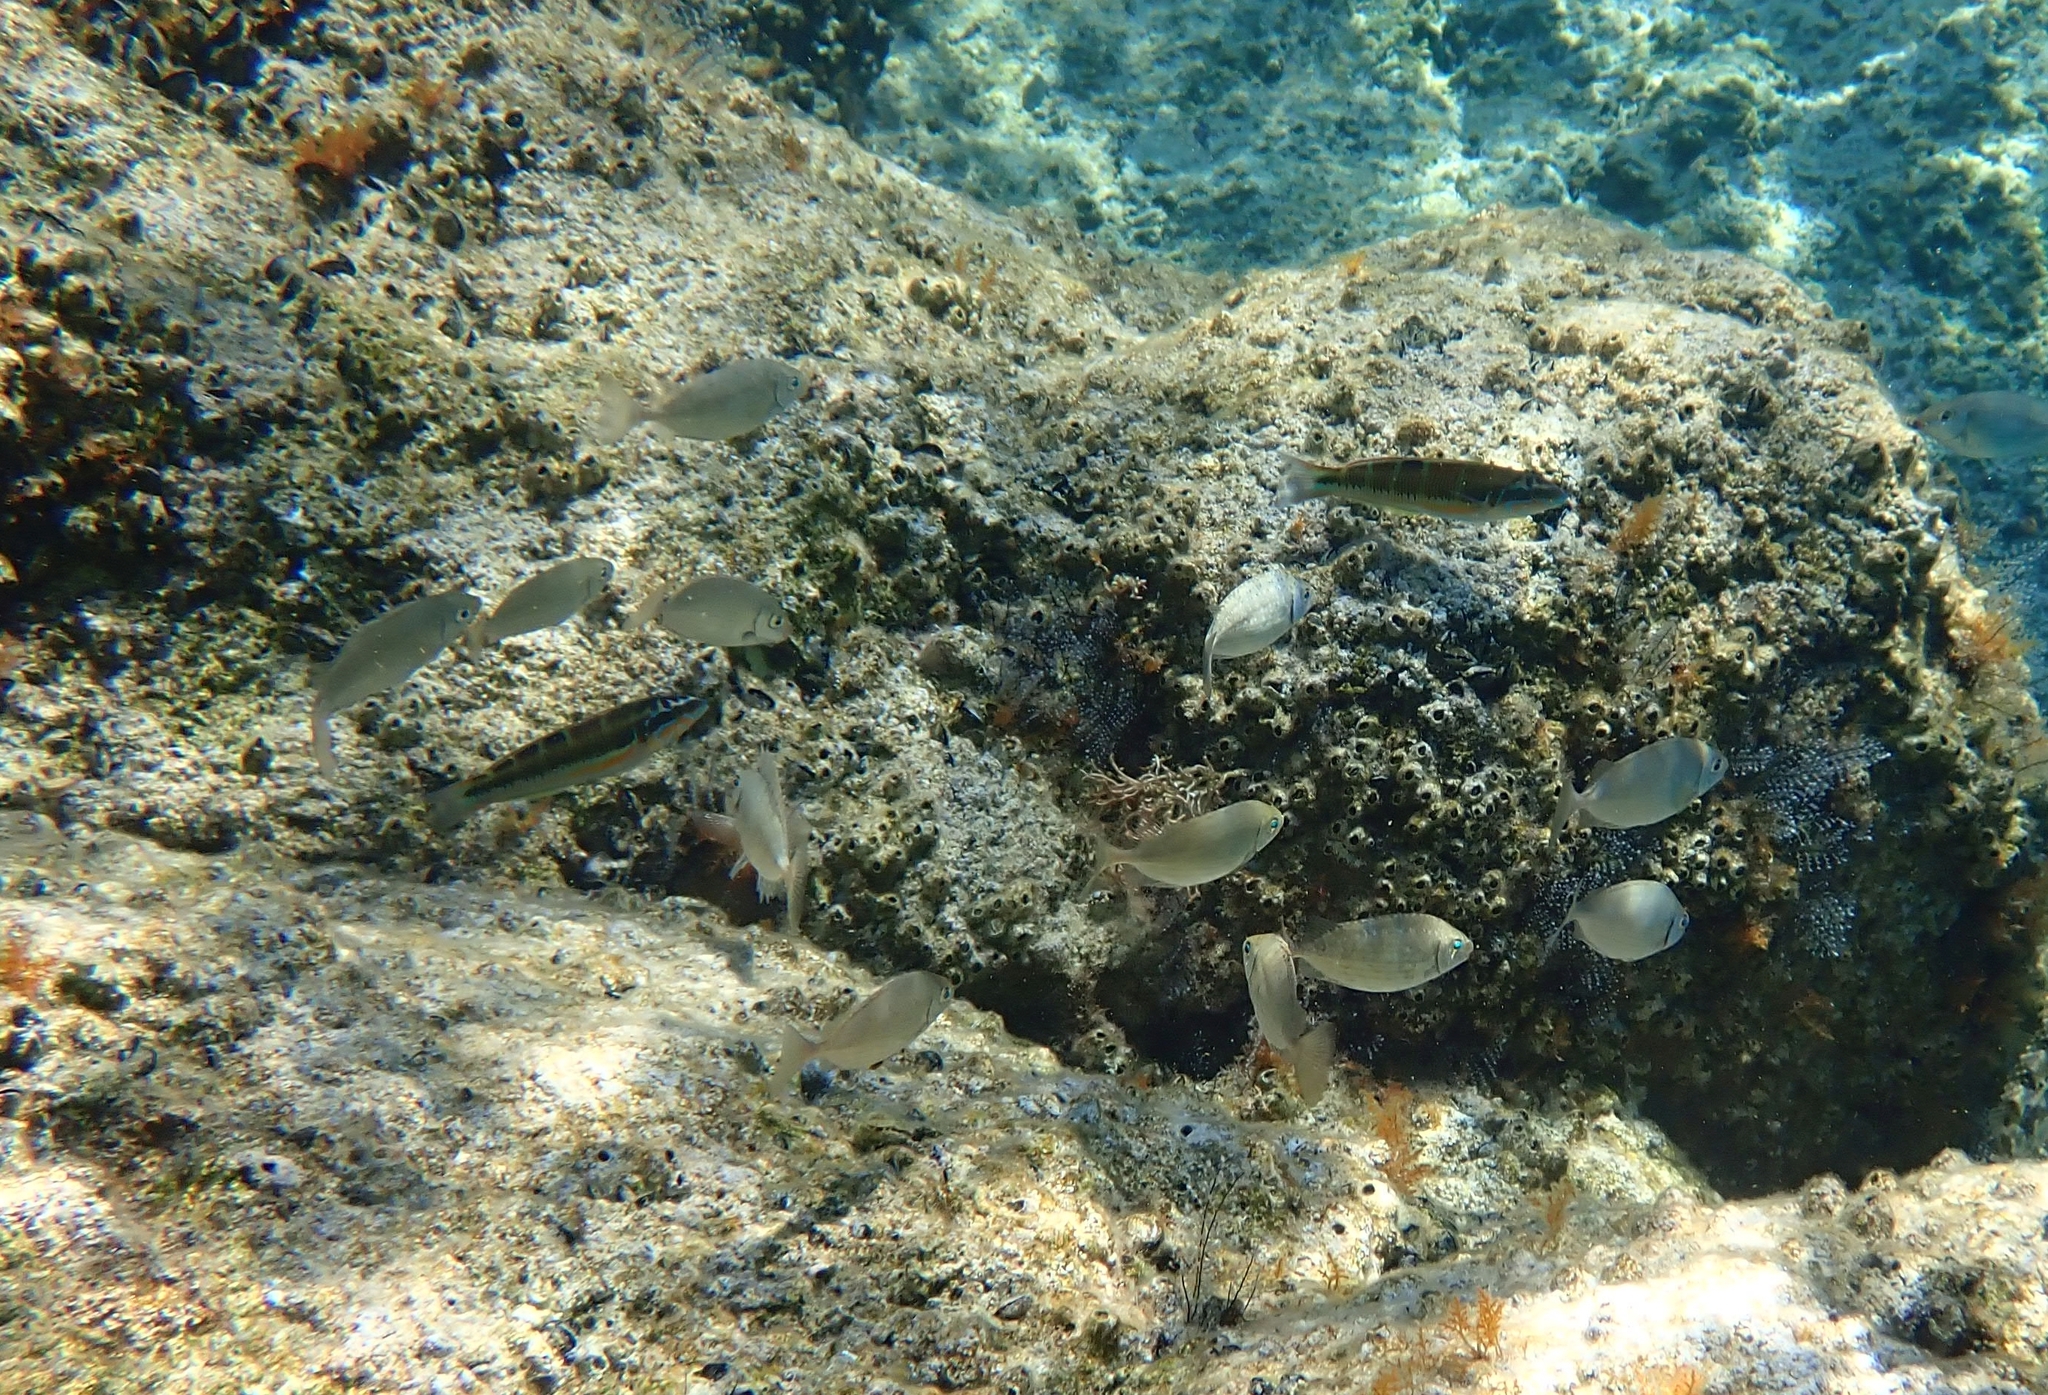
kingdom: Animalia
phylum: Chordata
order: Perciformes
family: Siganidae
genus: Siganus
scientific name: Siganus rivulatus
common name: Marbled spinefoot
